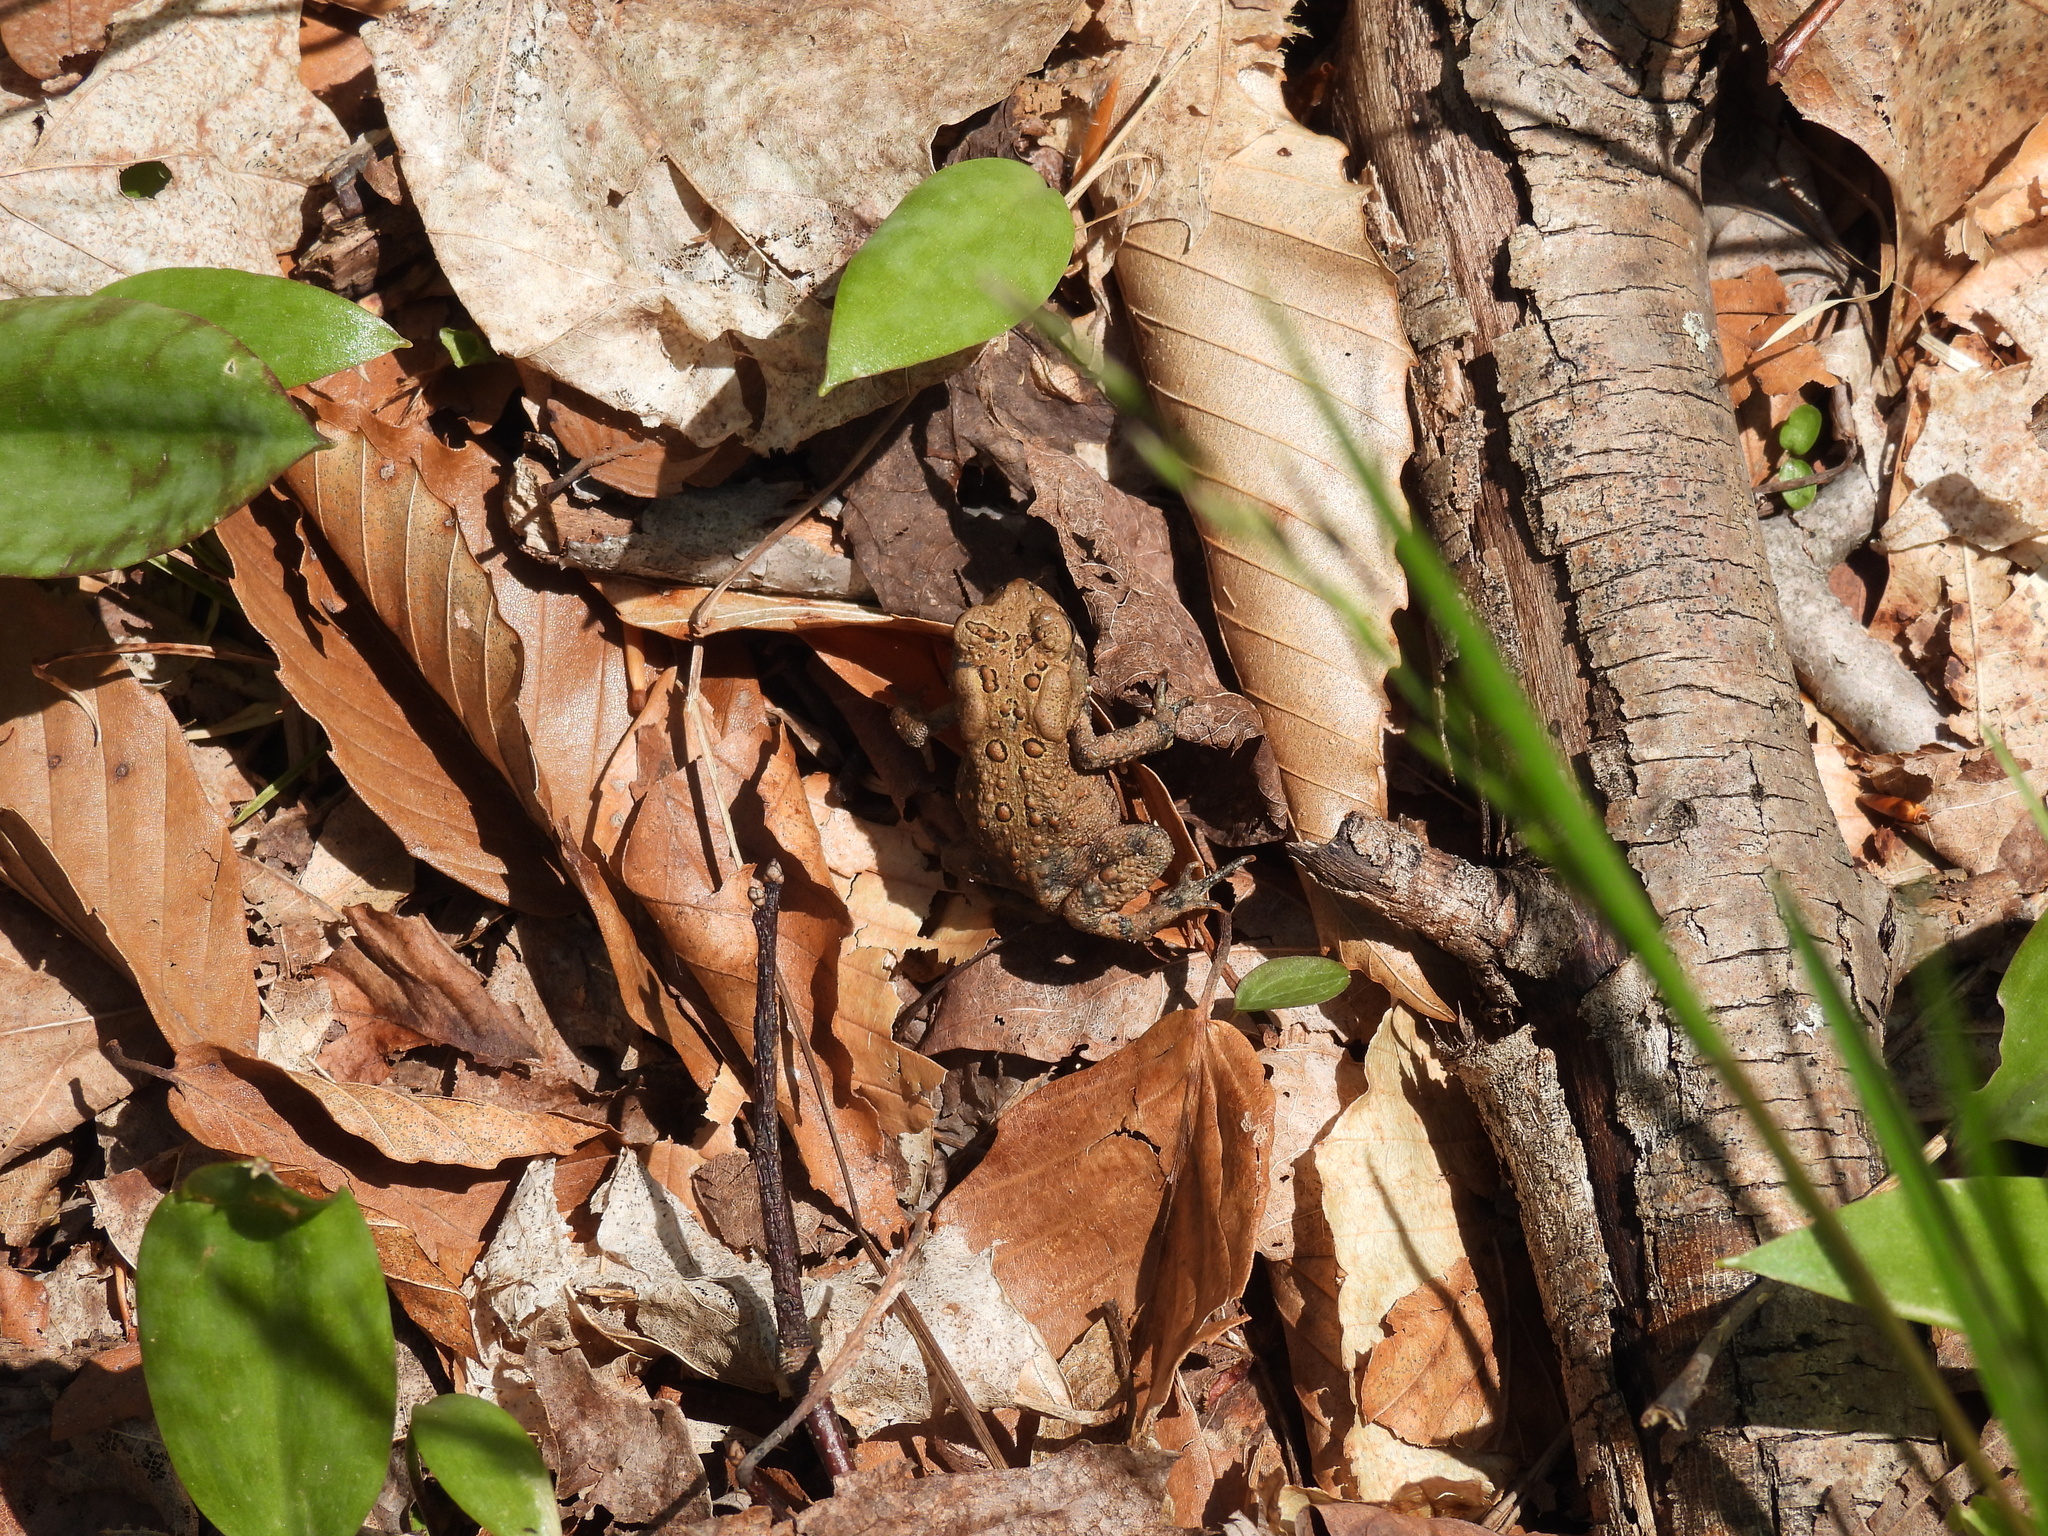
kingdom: Animalia
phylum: Chordata
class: Amphibia
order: Anura
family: Bufonidae
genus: Anaxyrus
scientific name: Anaxyrus americanus
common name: American toad
